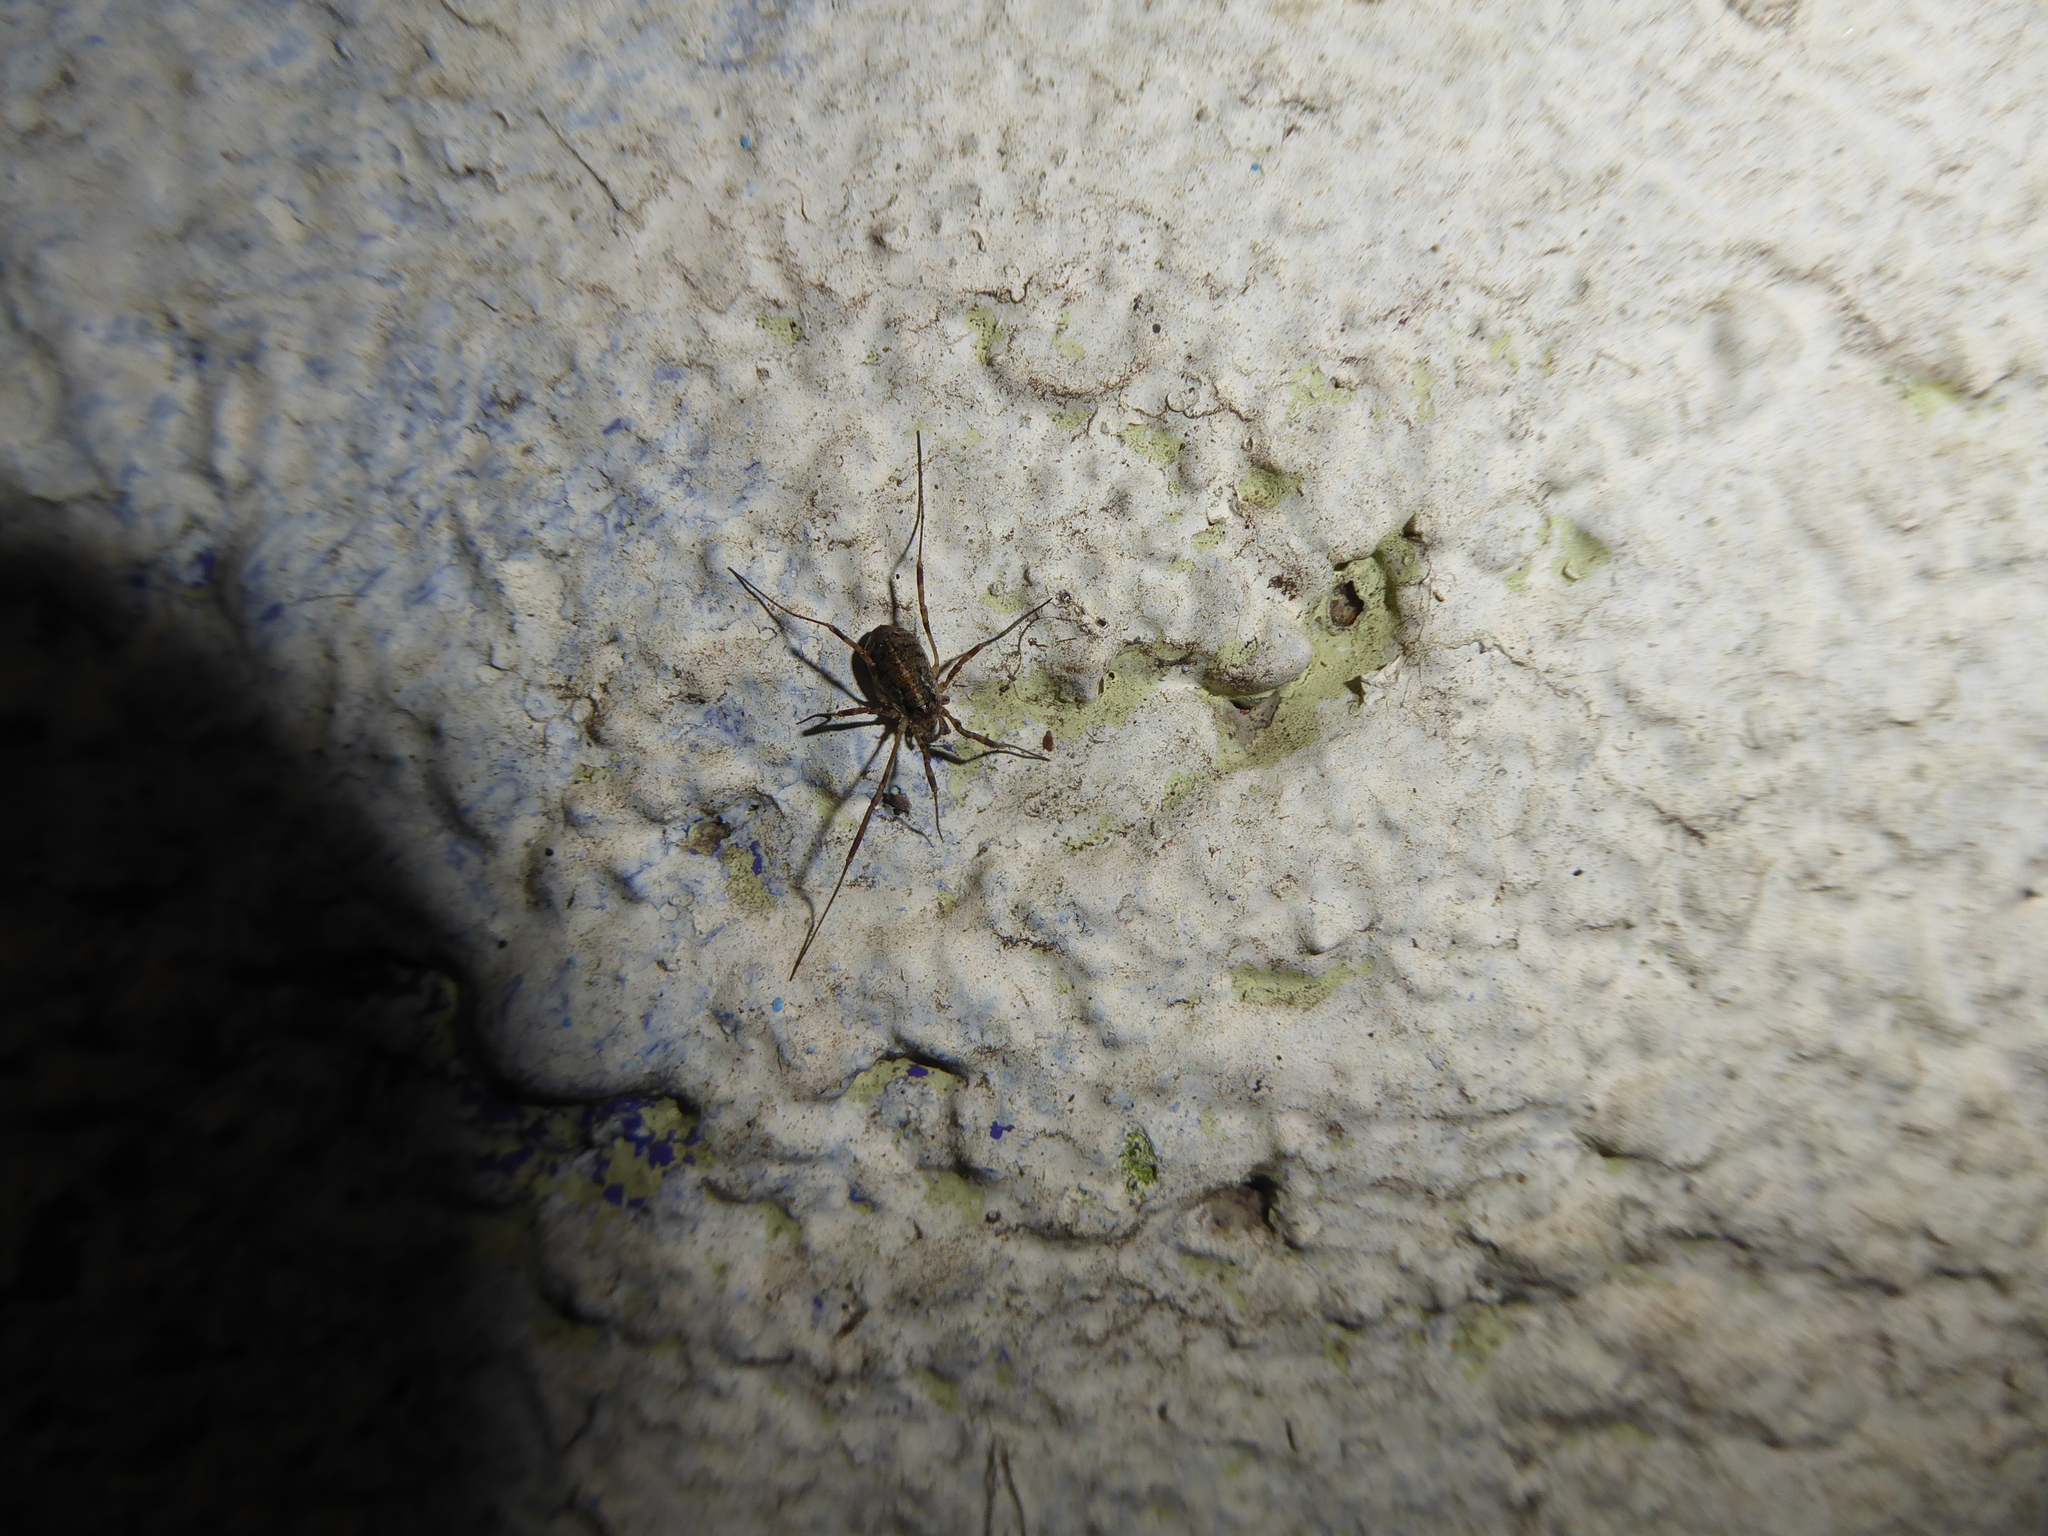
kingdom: Animalia
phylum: Arthropoda
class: Arachnida
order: Opiliones
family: Phalangiidae
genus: Paroligolophus
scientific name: Paroligolophus agrestis
